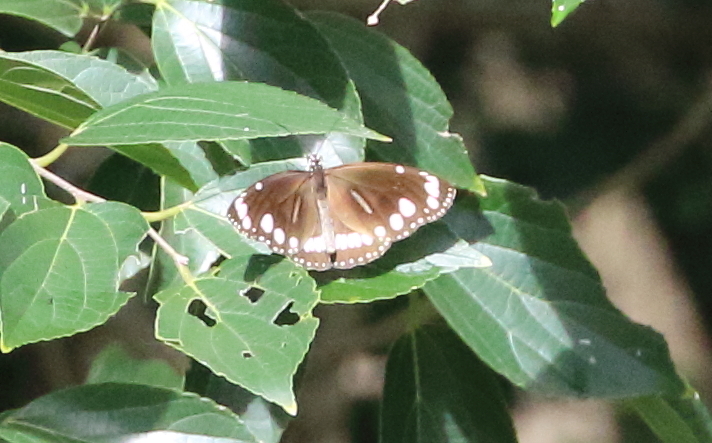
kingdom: Animalia
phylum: Arthropoda
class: Insecta
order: Lepidoptera
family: Nymphalidae
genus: Euploea
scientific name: Euploea core
